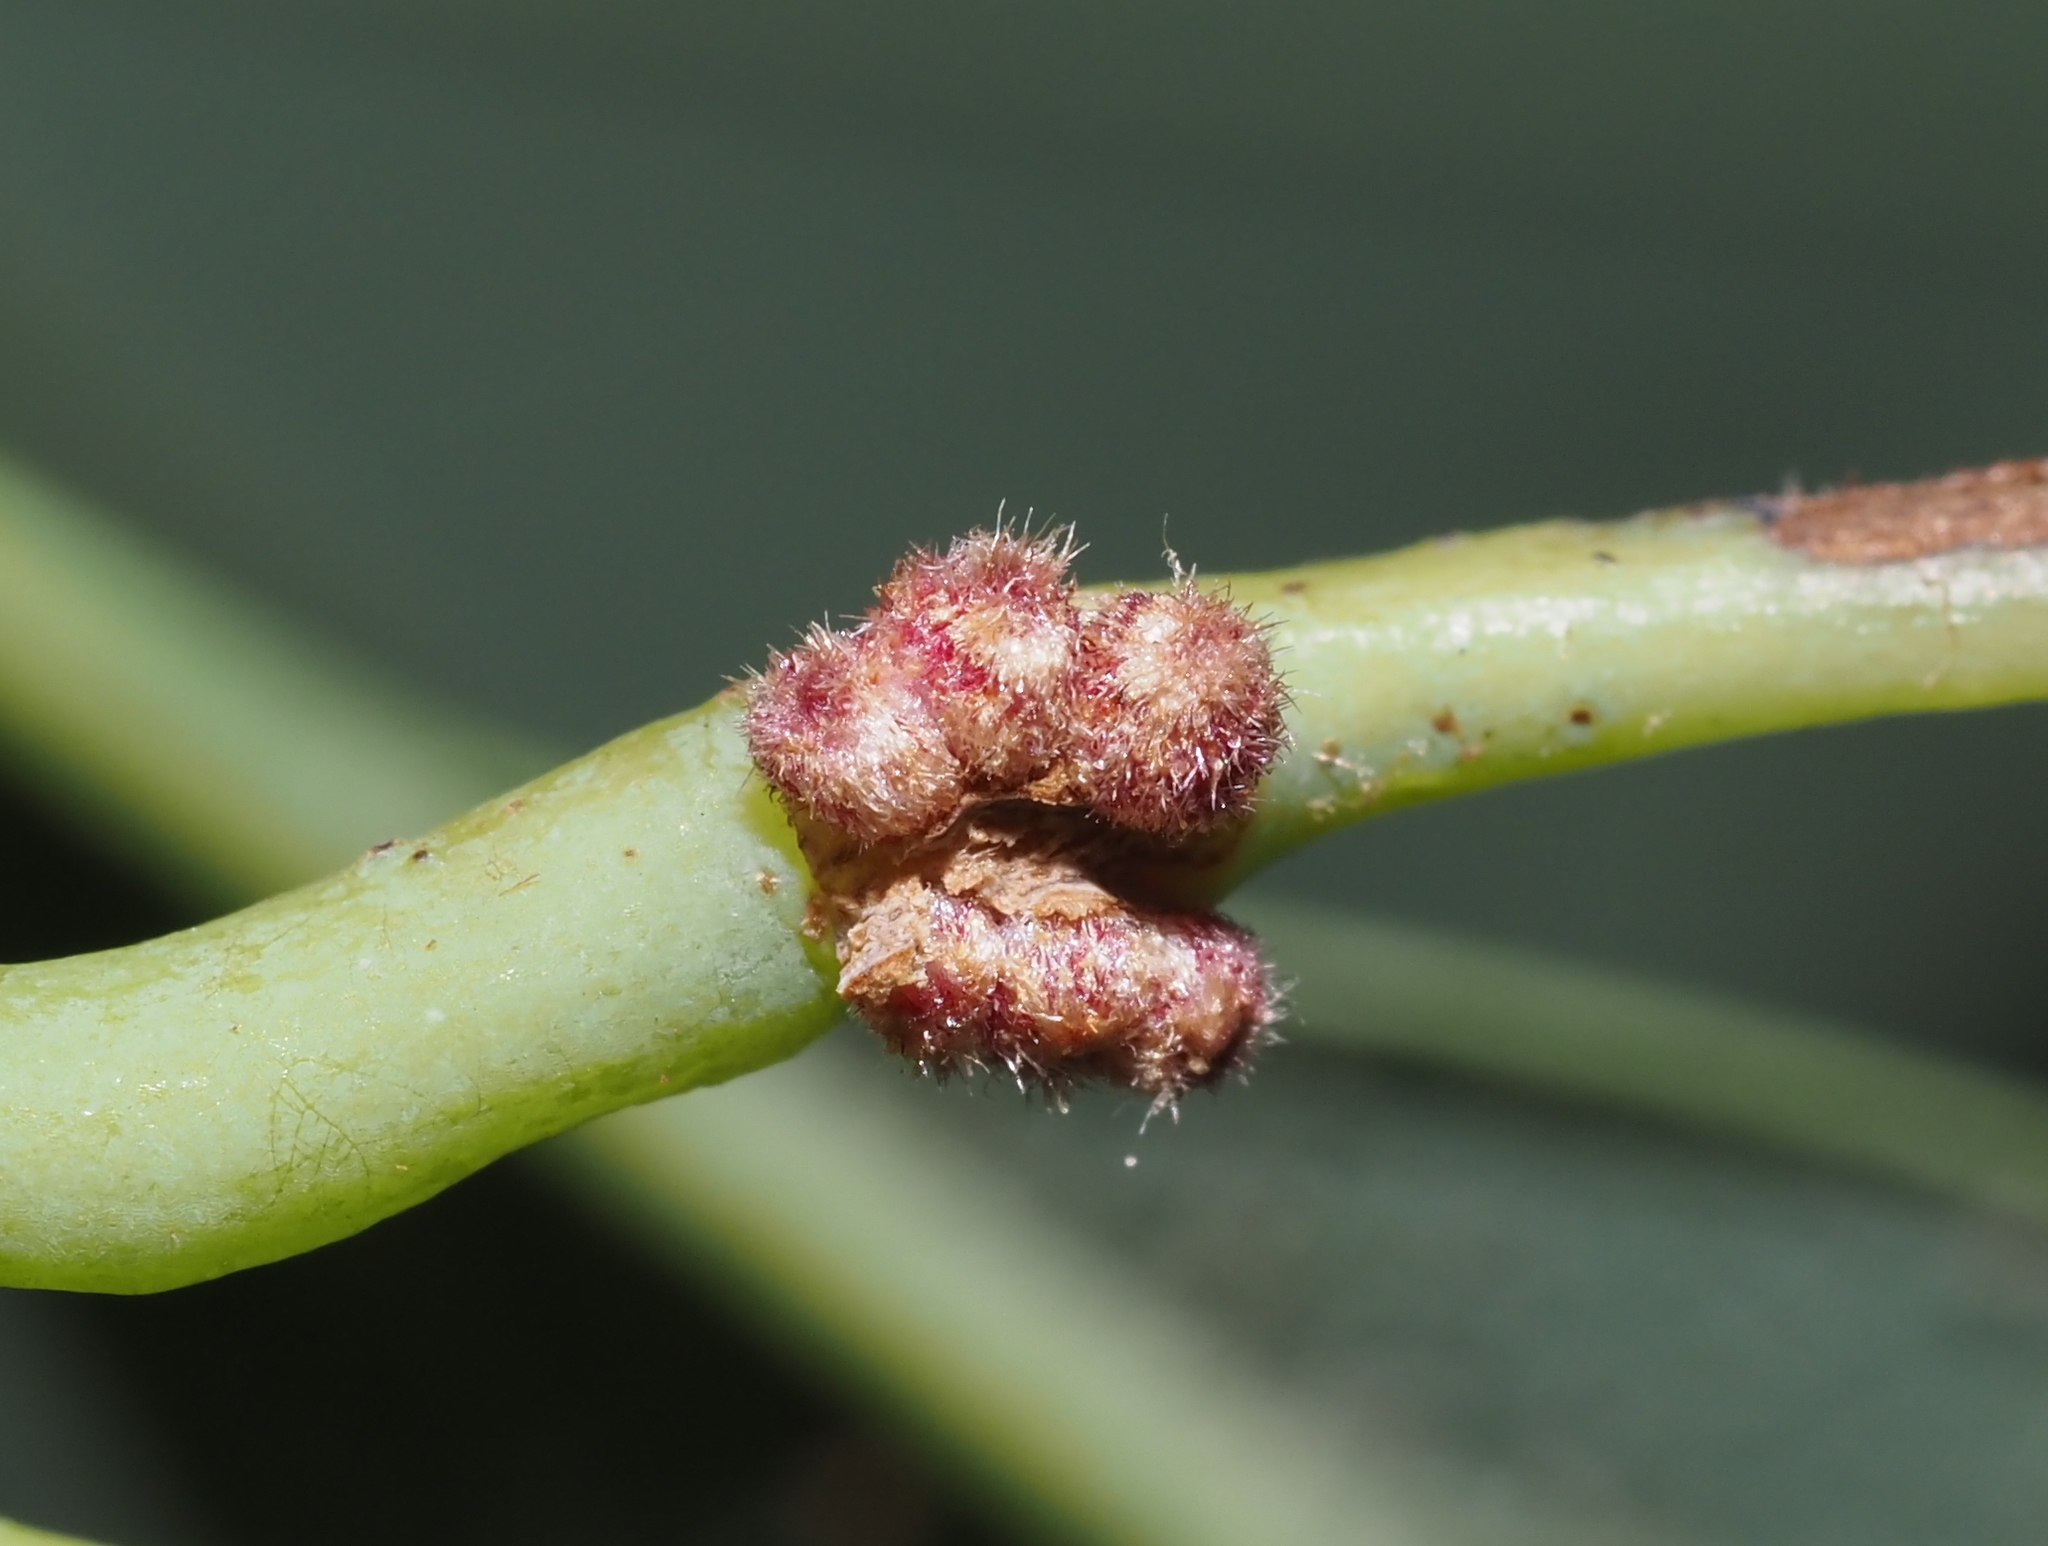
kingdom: Animalia
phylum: Arthropoda
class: Insecta
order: Hymenoptera
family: Cynipidae
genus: Andricus
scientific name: Andricus
